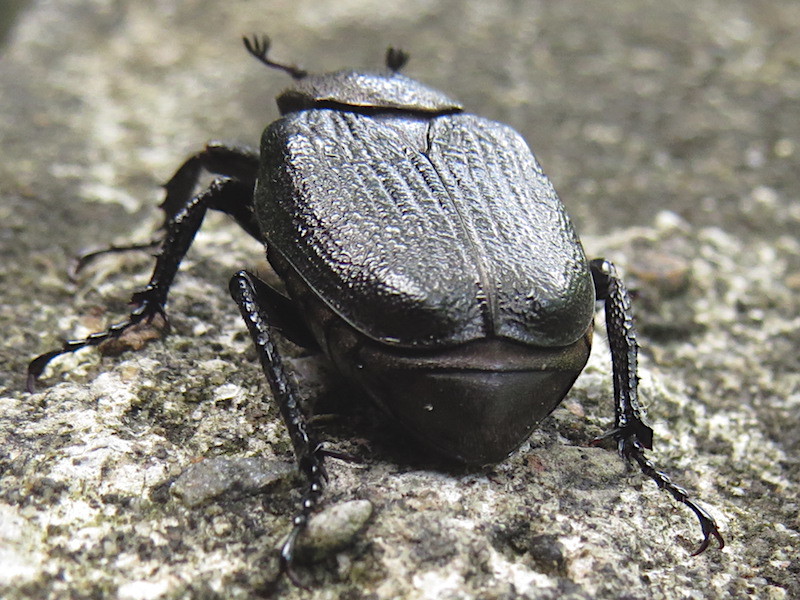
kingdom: Animalia
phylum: Arthropoda
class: Insecta
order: Coleoptera
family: Scarabaeidae
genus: Osmoderma
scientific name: Osmoderma scabra
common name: Rough hermit beetle
